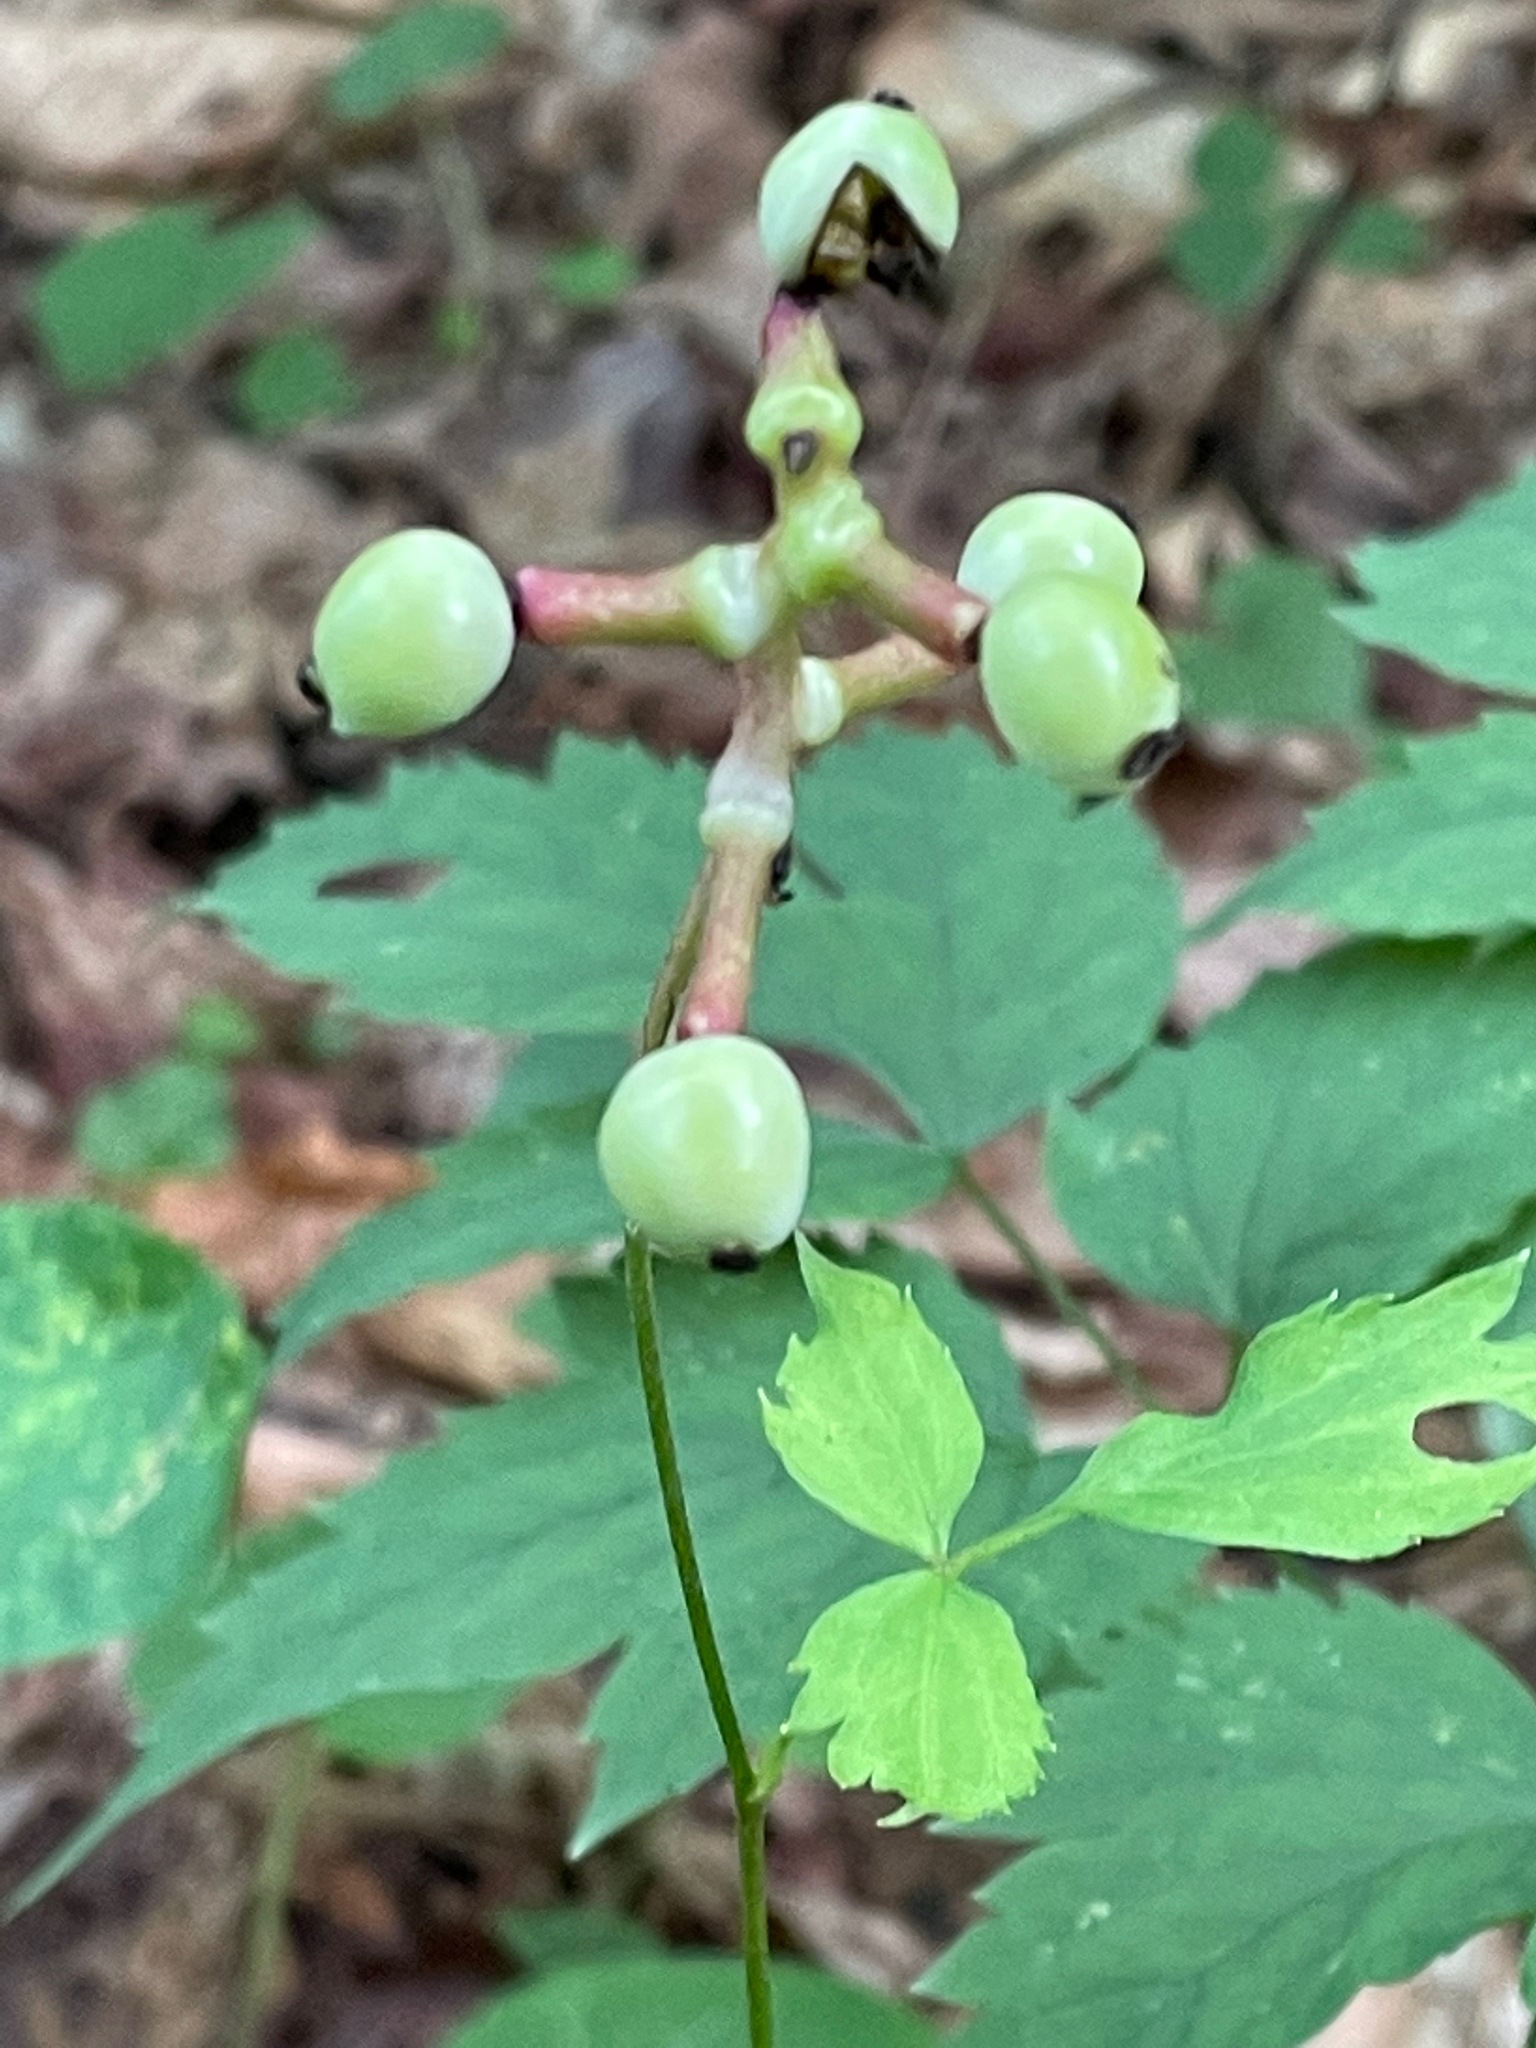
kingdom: Plantae
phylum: Tracheophyta
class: Magnoliopsida
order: Ranunculales
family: Ranunculaceae
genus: Actaea
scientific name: Actaea pachypoda
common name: Doll's-eyes
